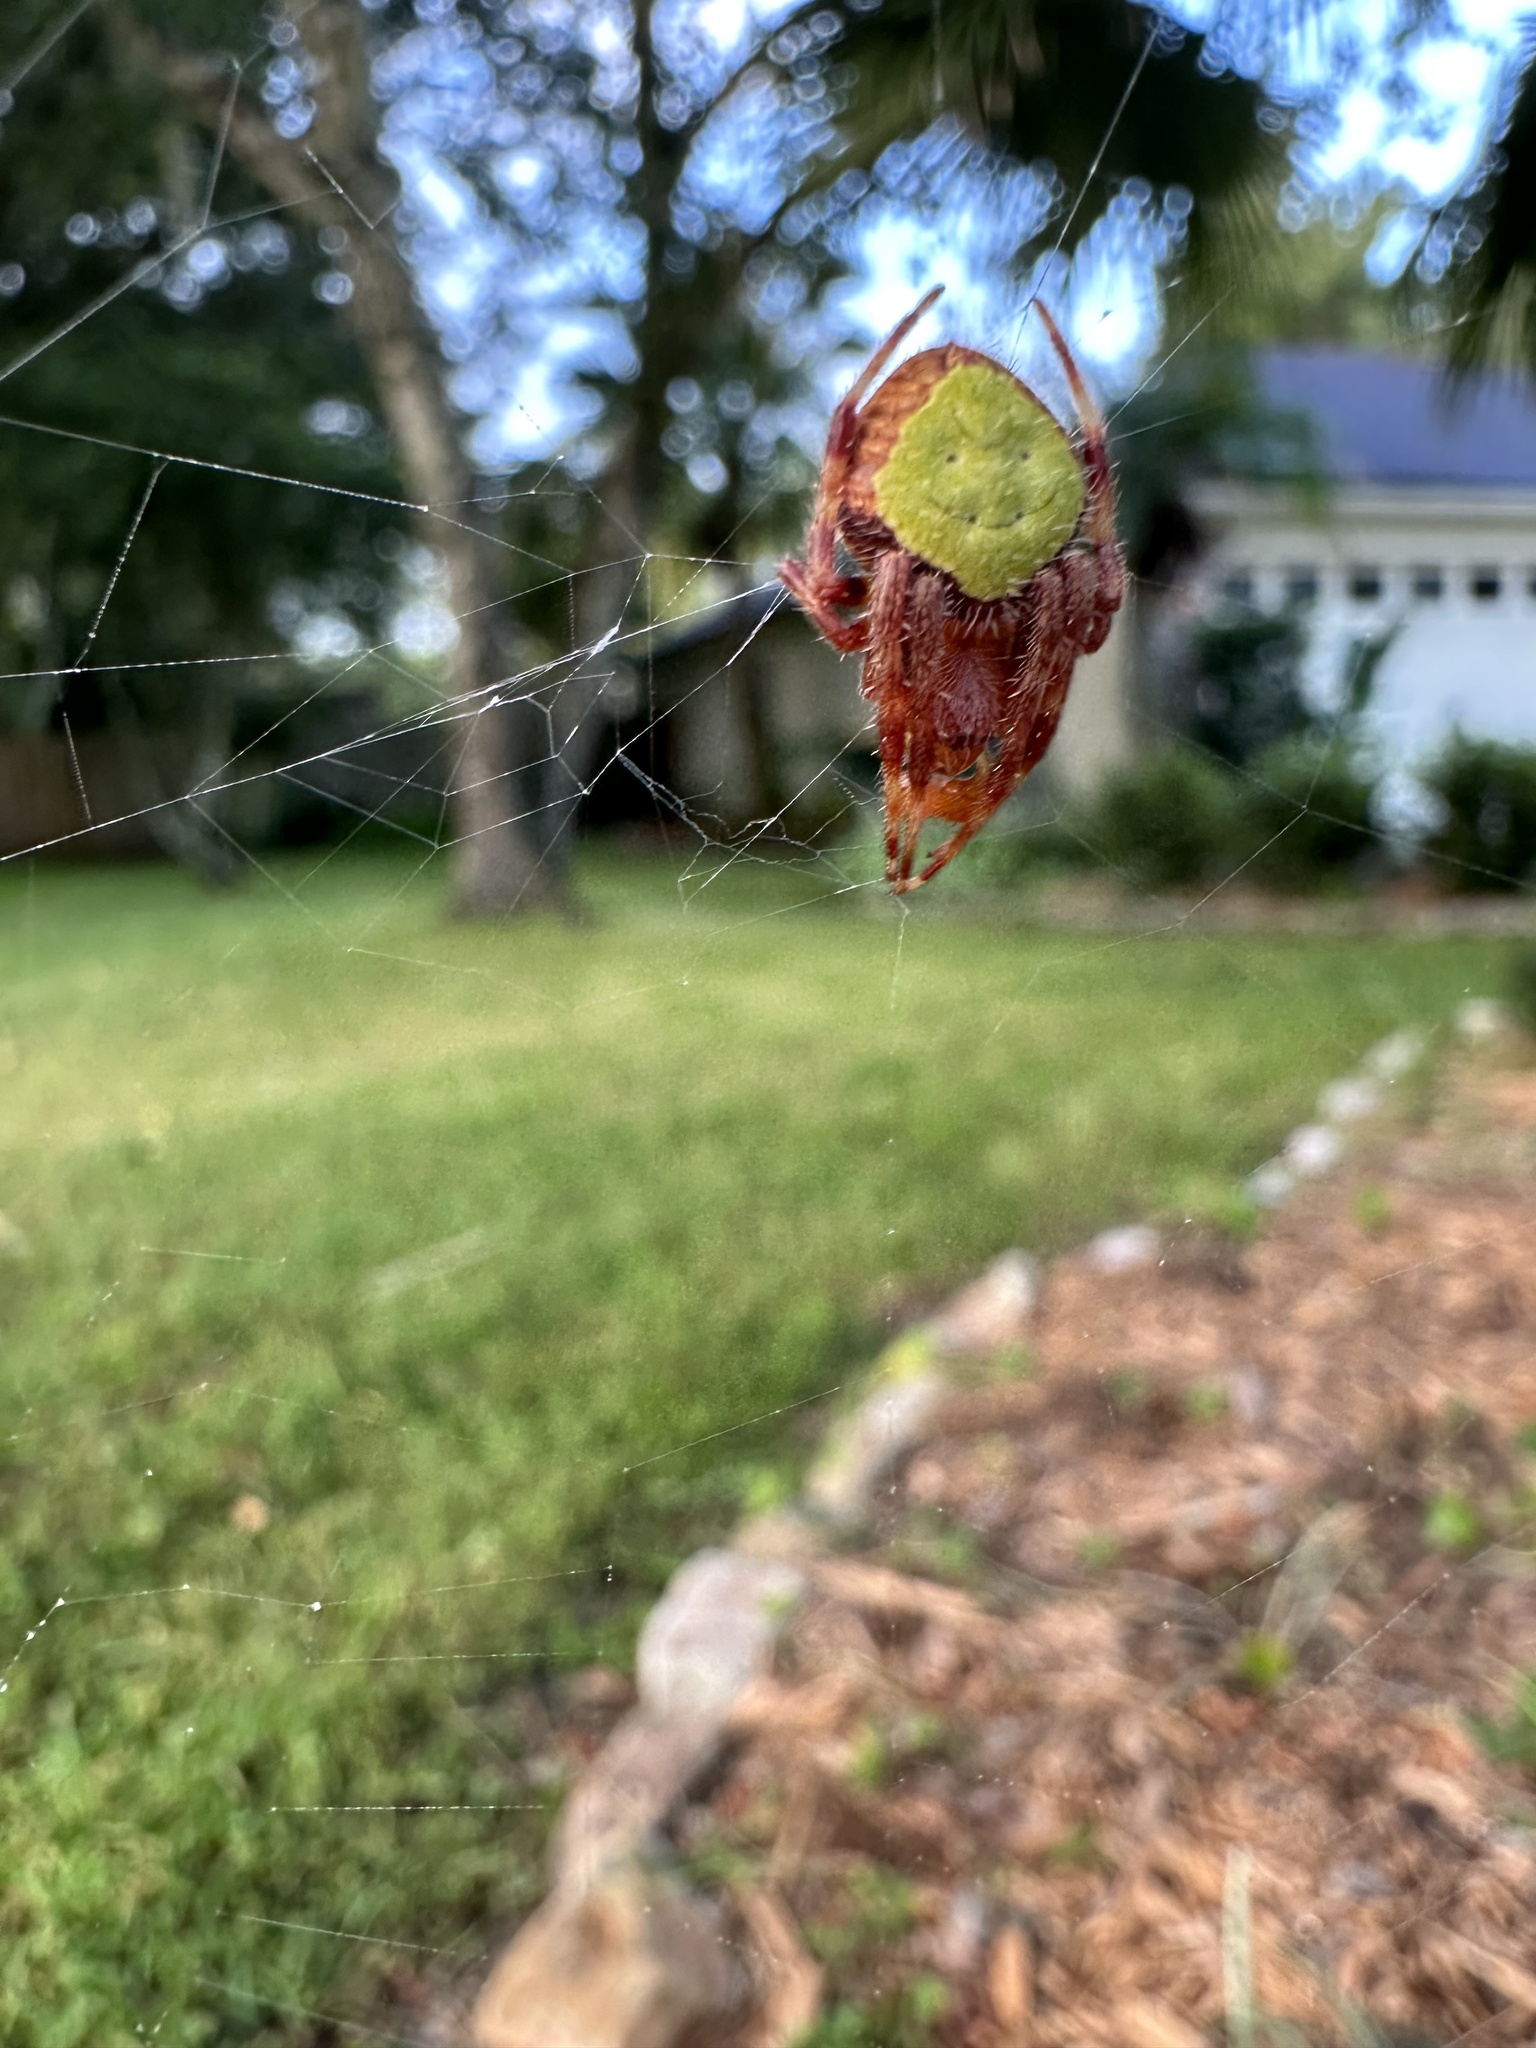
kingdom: Animalia
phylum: Arthropoda
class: Arachnida
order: Araneae
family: Araneidae
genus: Eriophora
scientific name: Eriophora ravilla
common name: Orb weavers
